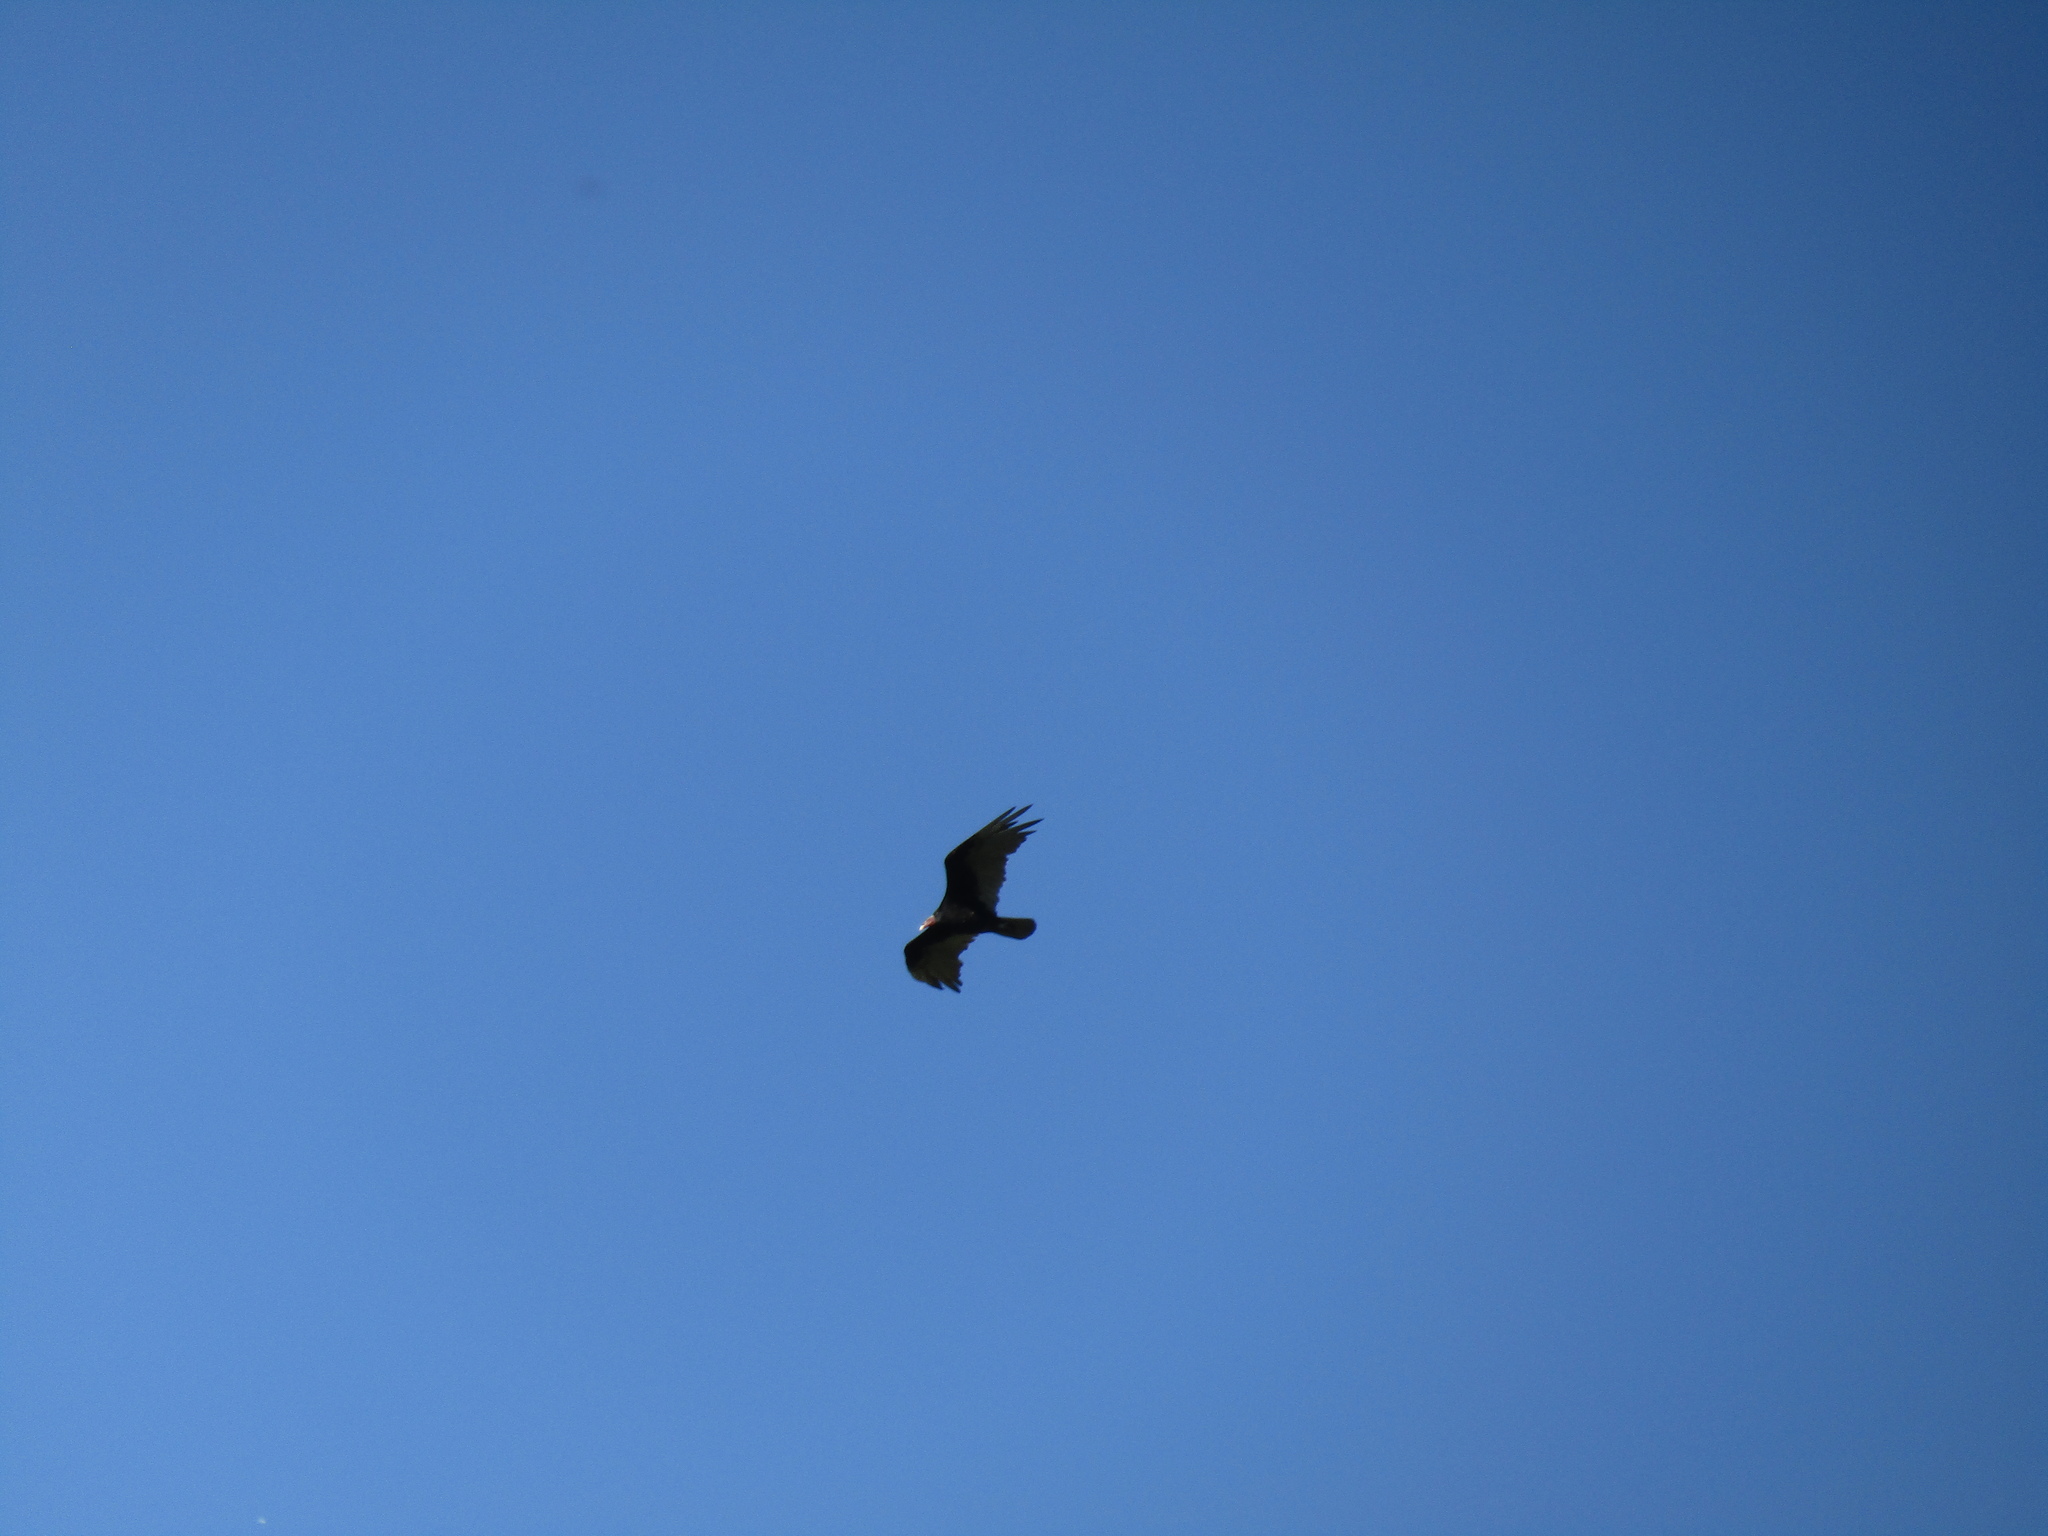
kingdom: Animalia
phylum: Chordata
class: Aves
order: Accipitriformes
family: Cathartidae
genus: Cathartes
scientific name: Cathartes aura
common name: Turkey vulture
